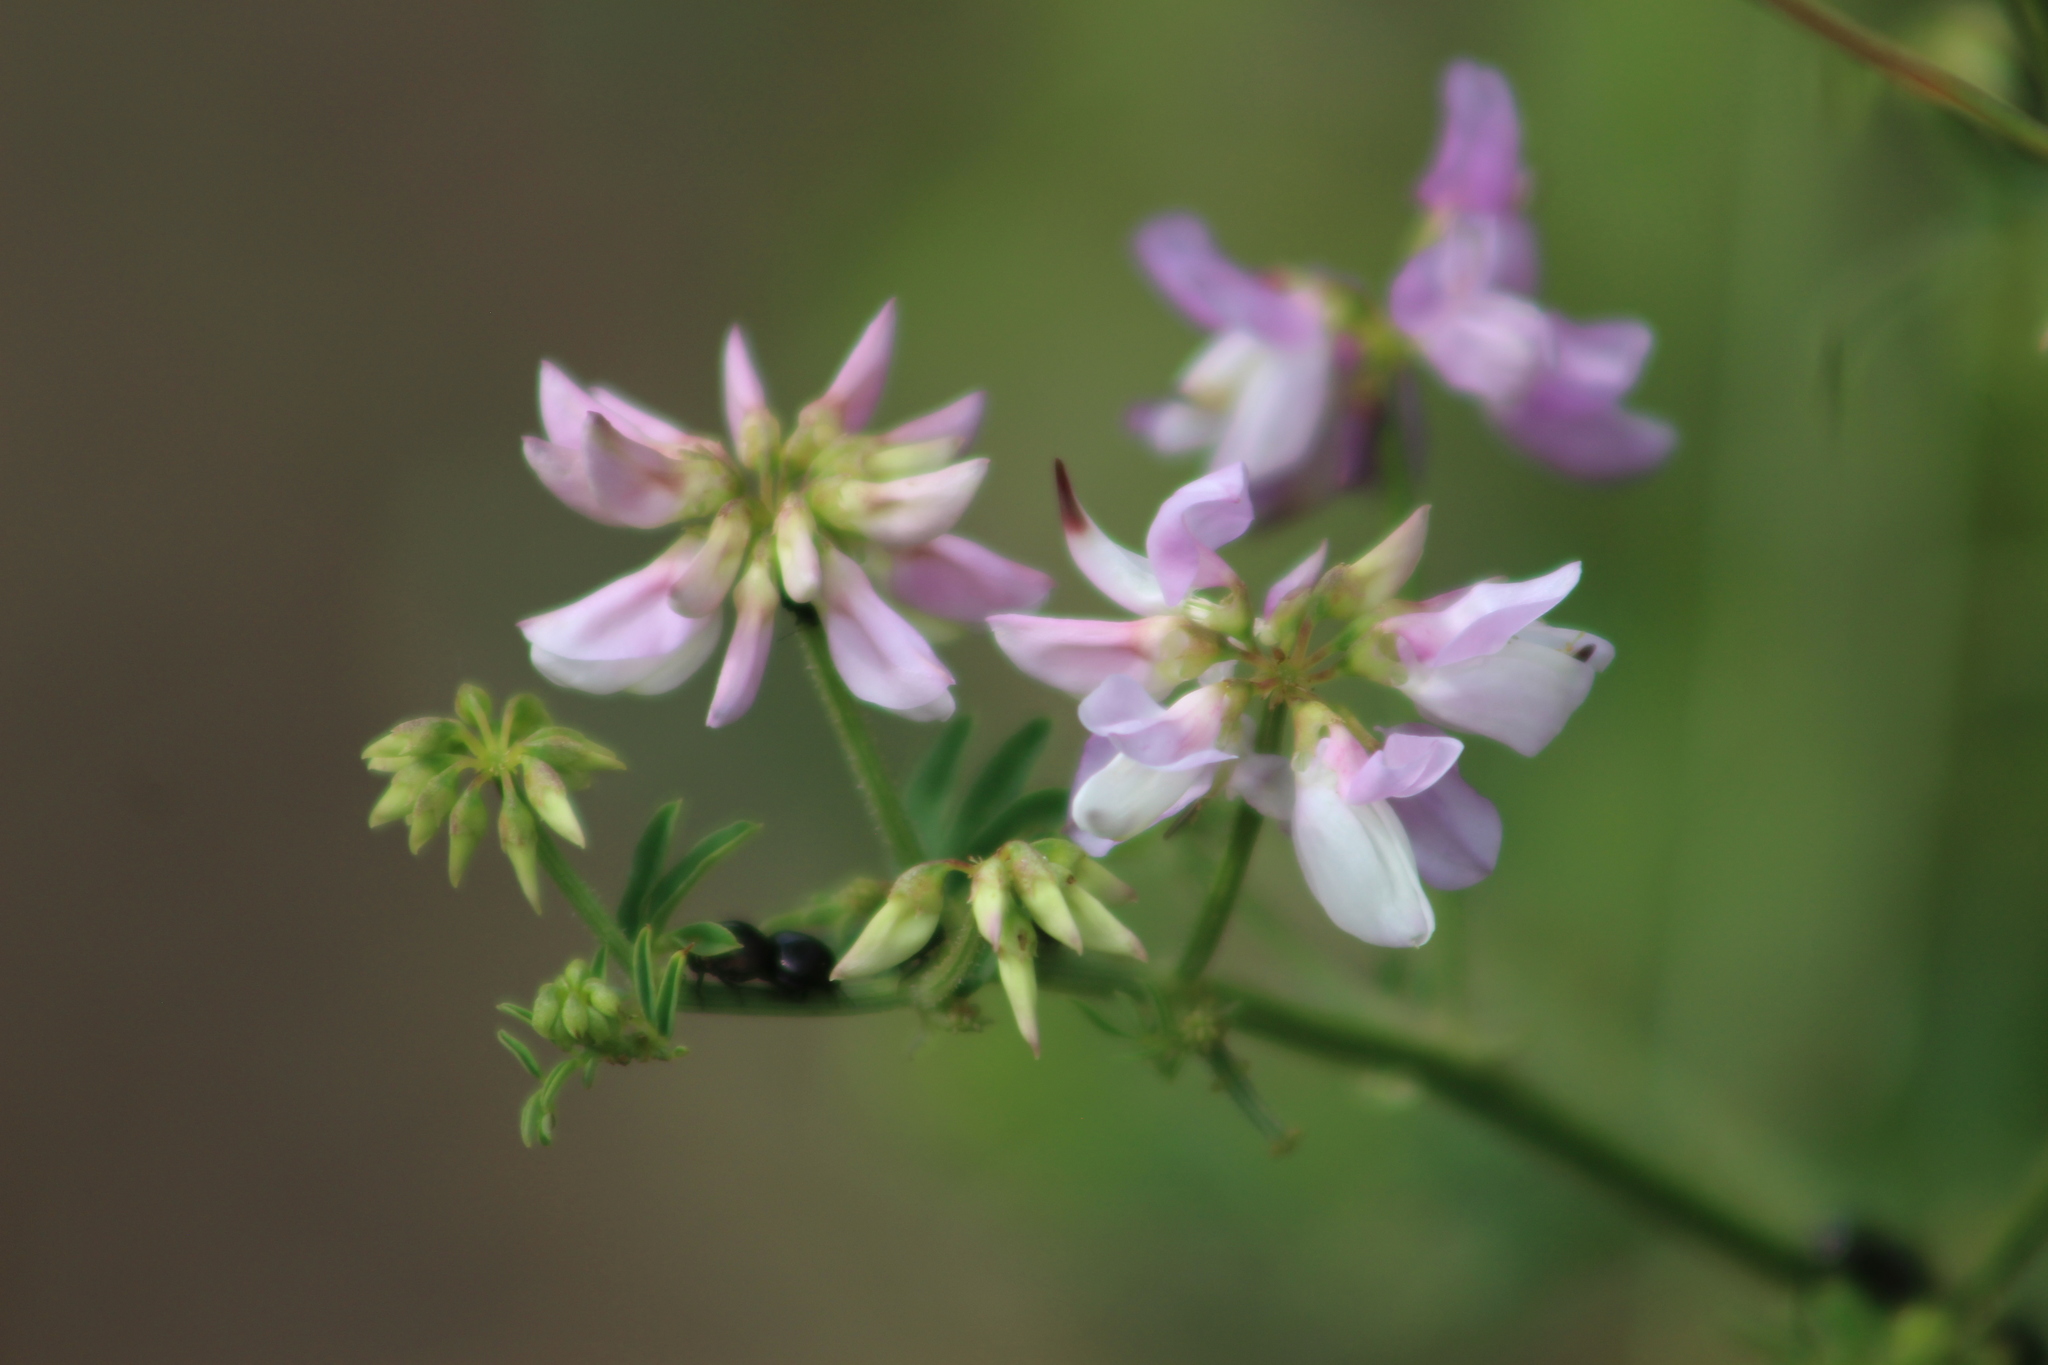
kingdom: Plantae
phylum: Tracheophyta
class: Magnoliopsida
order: Fabales
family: Fabaceae
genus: Coronilla
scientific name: Coronilla varia
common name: Crownvetch
